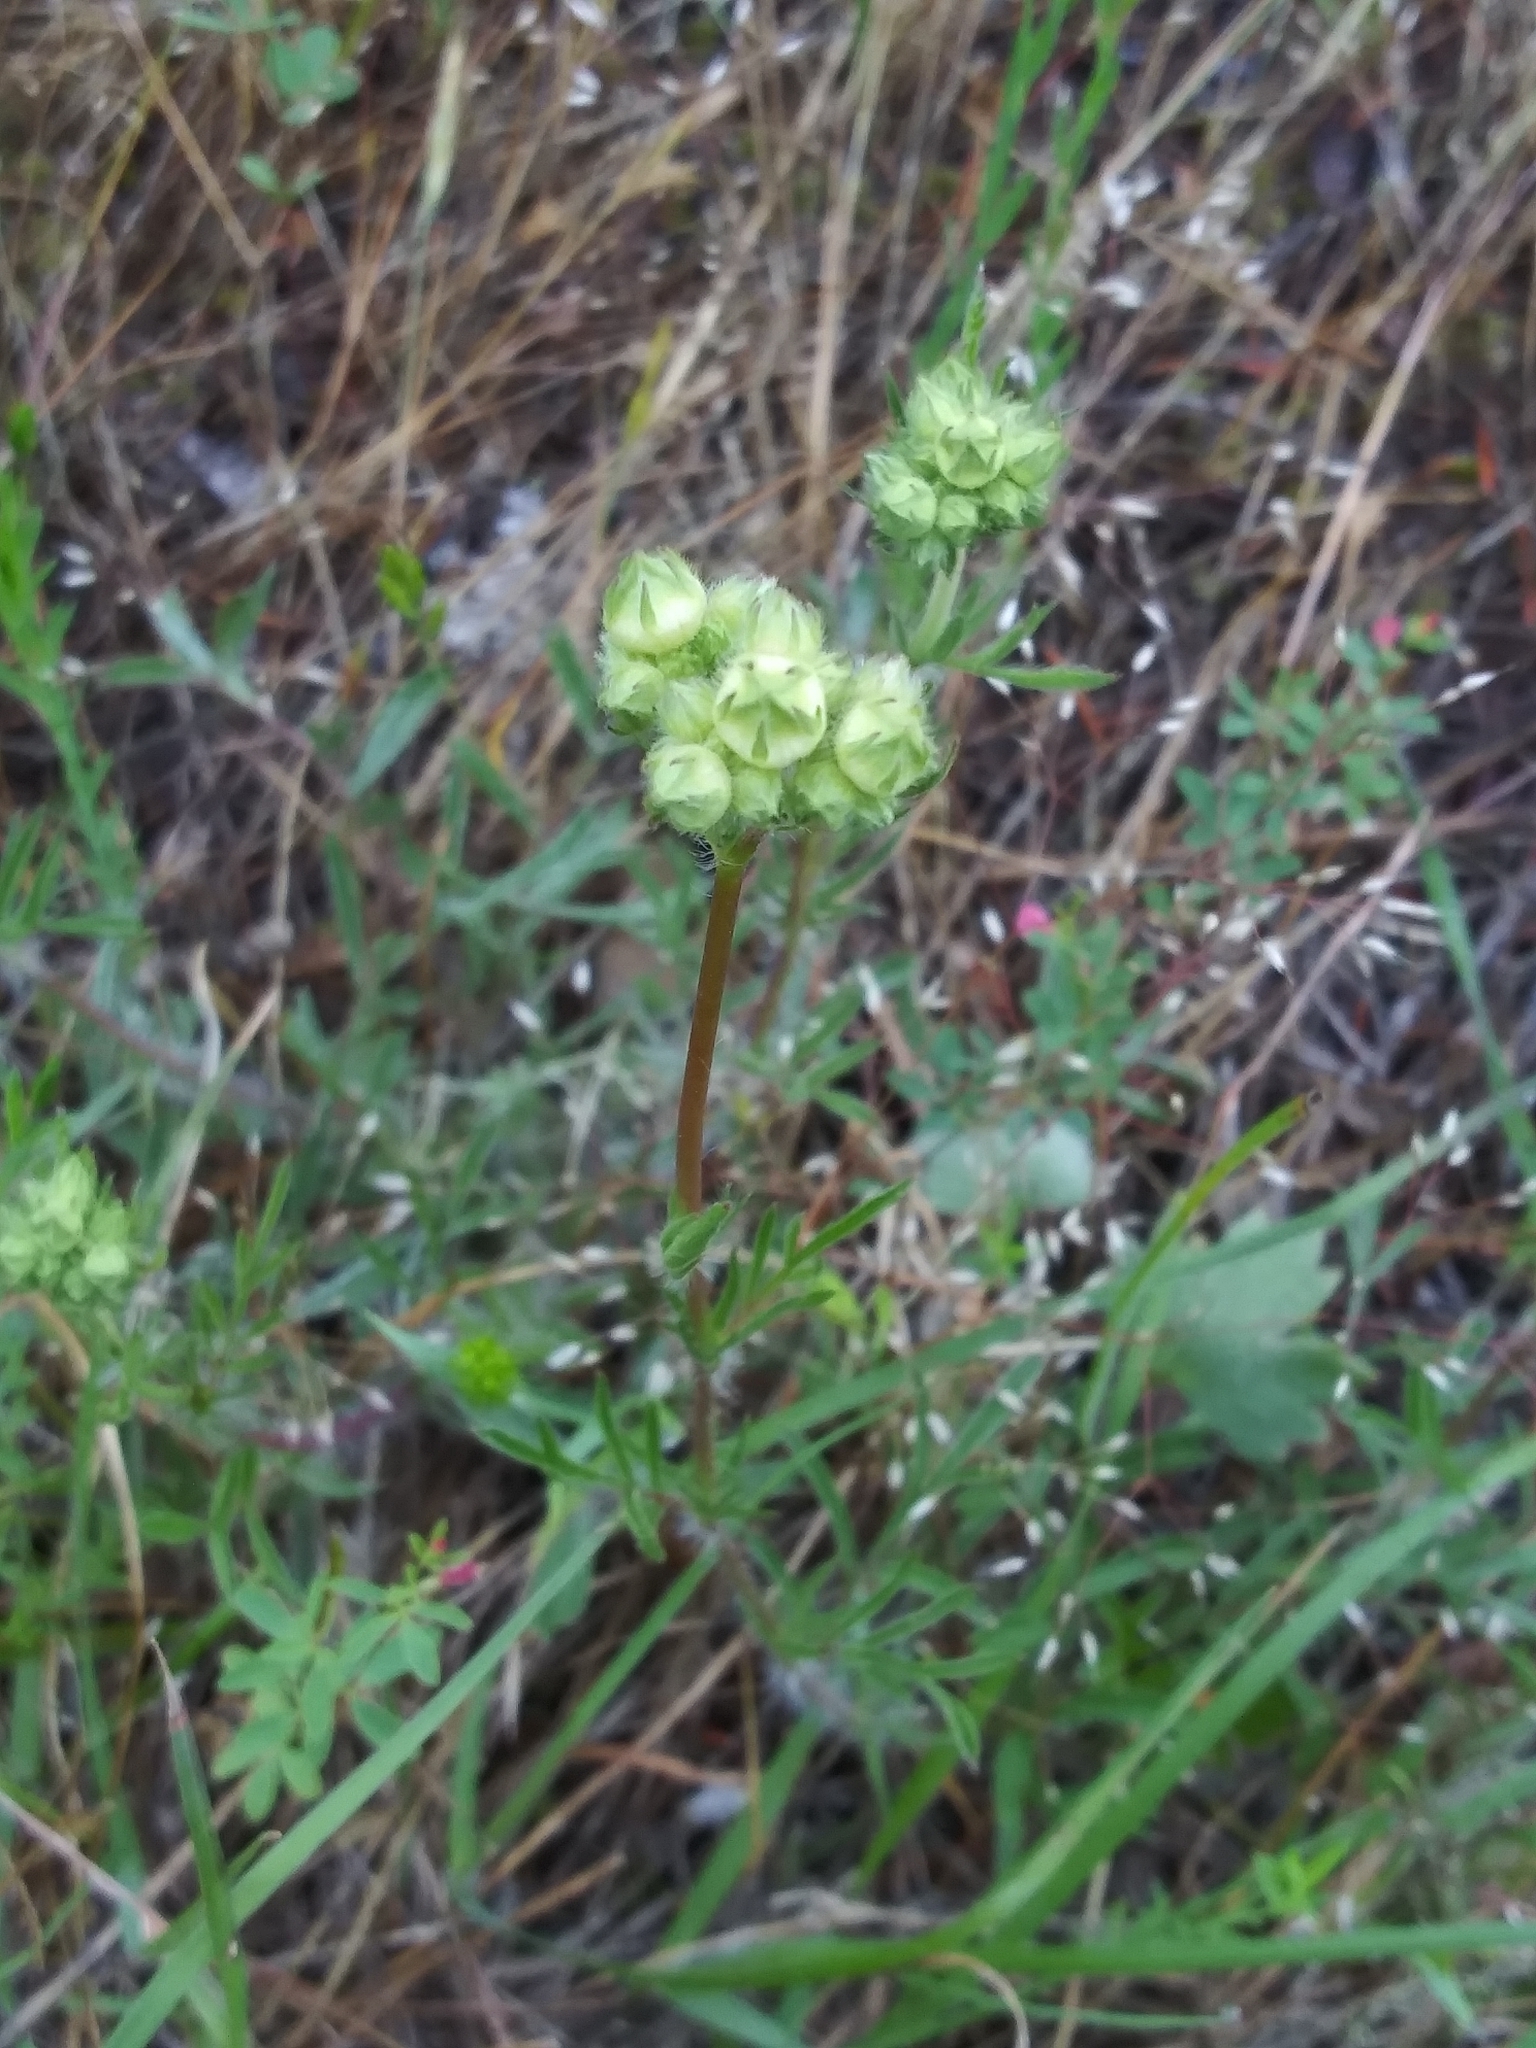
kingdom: Plantae
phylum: Tracheophyta
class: Magnoliopsida
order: Rosales
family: Rosaceae
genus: Potentilla
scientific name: Potentilla congesta
